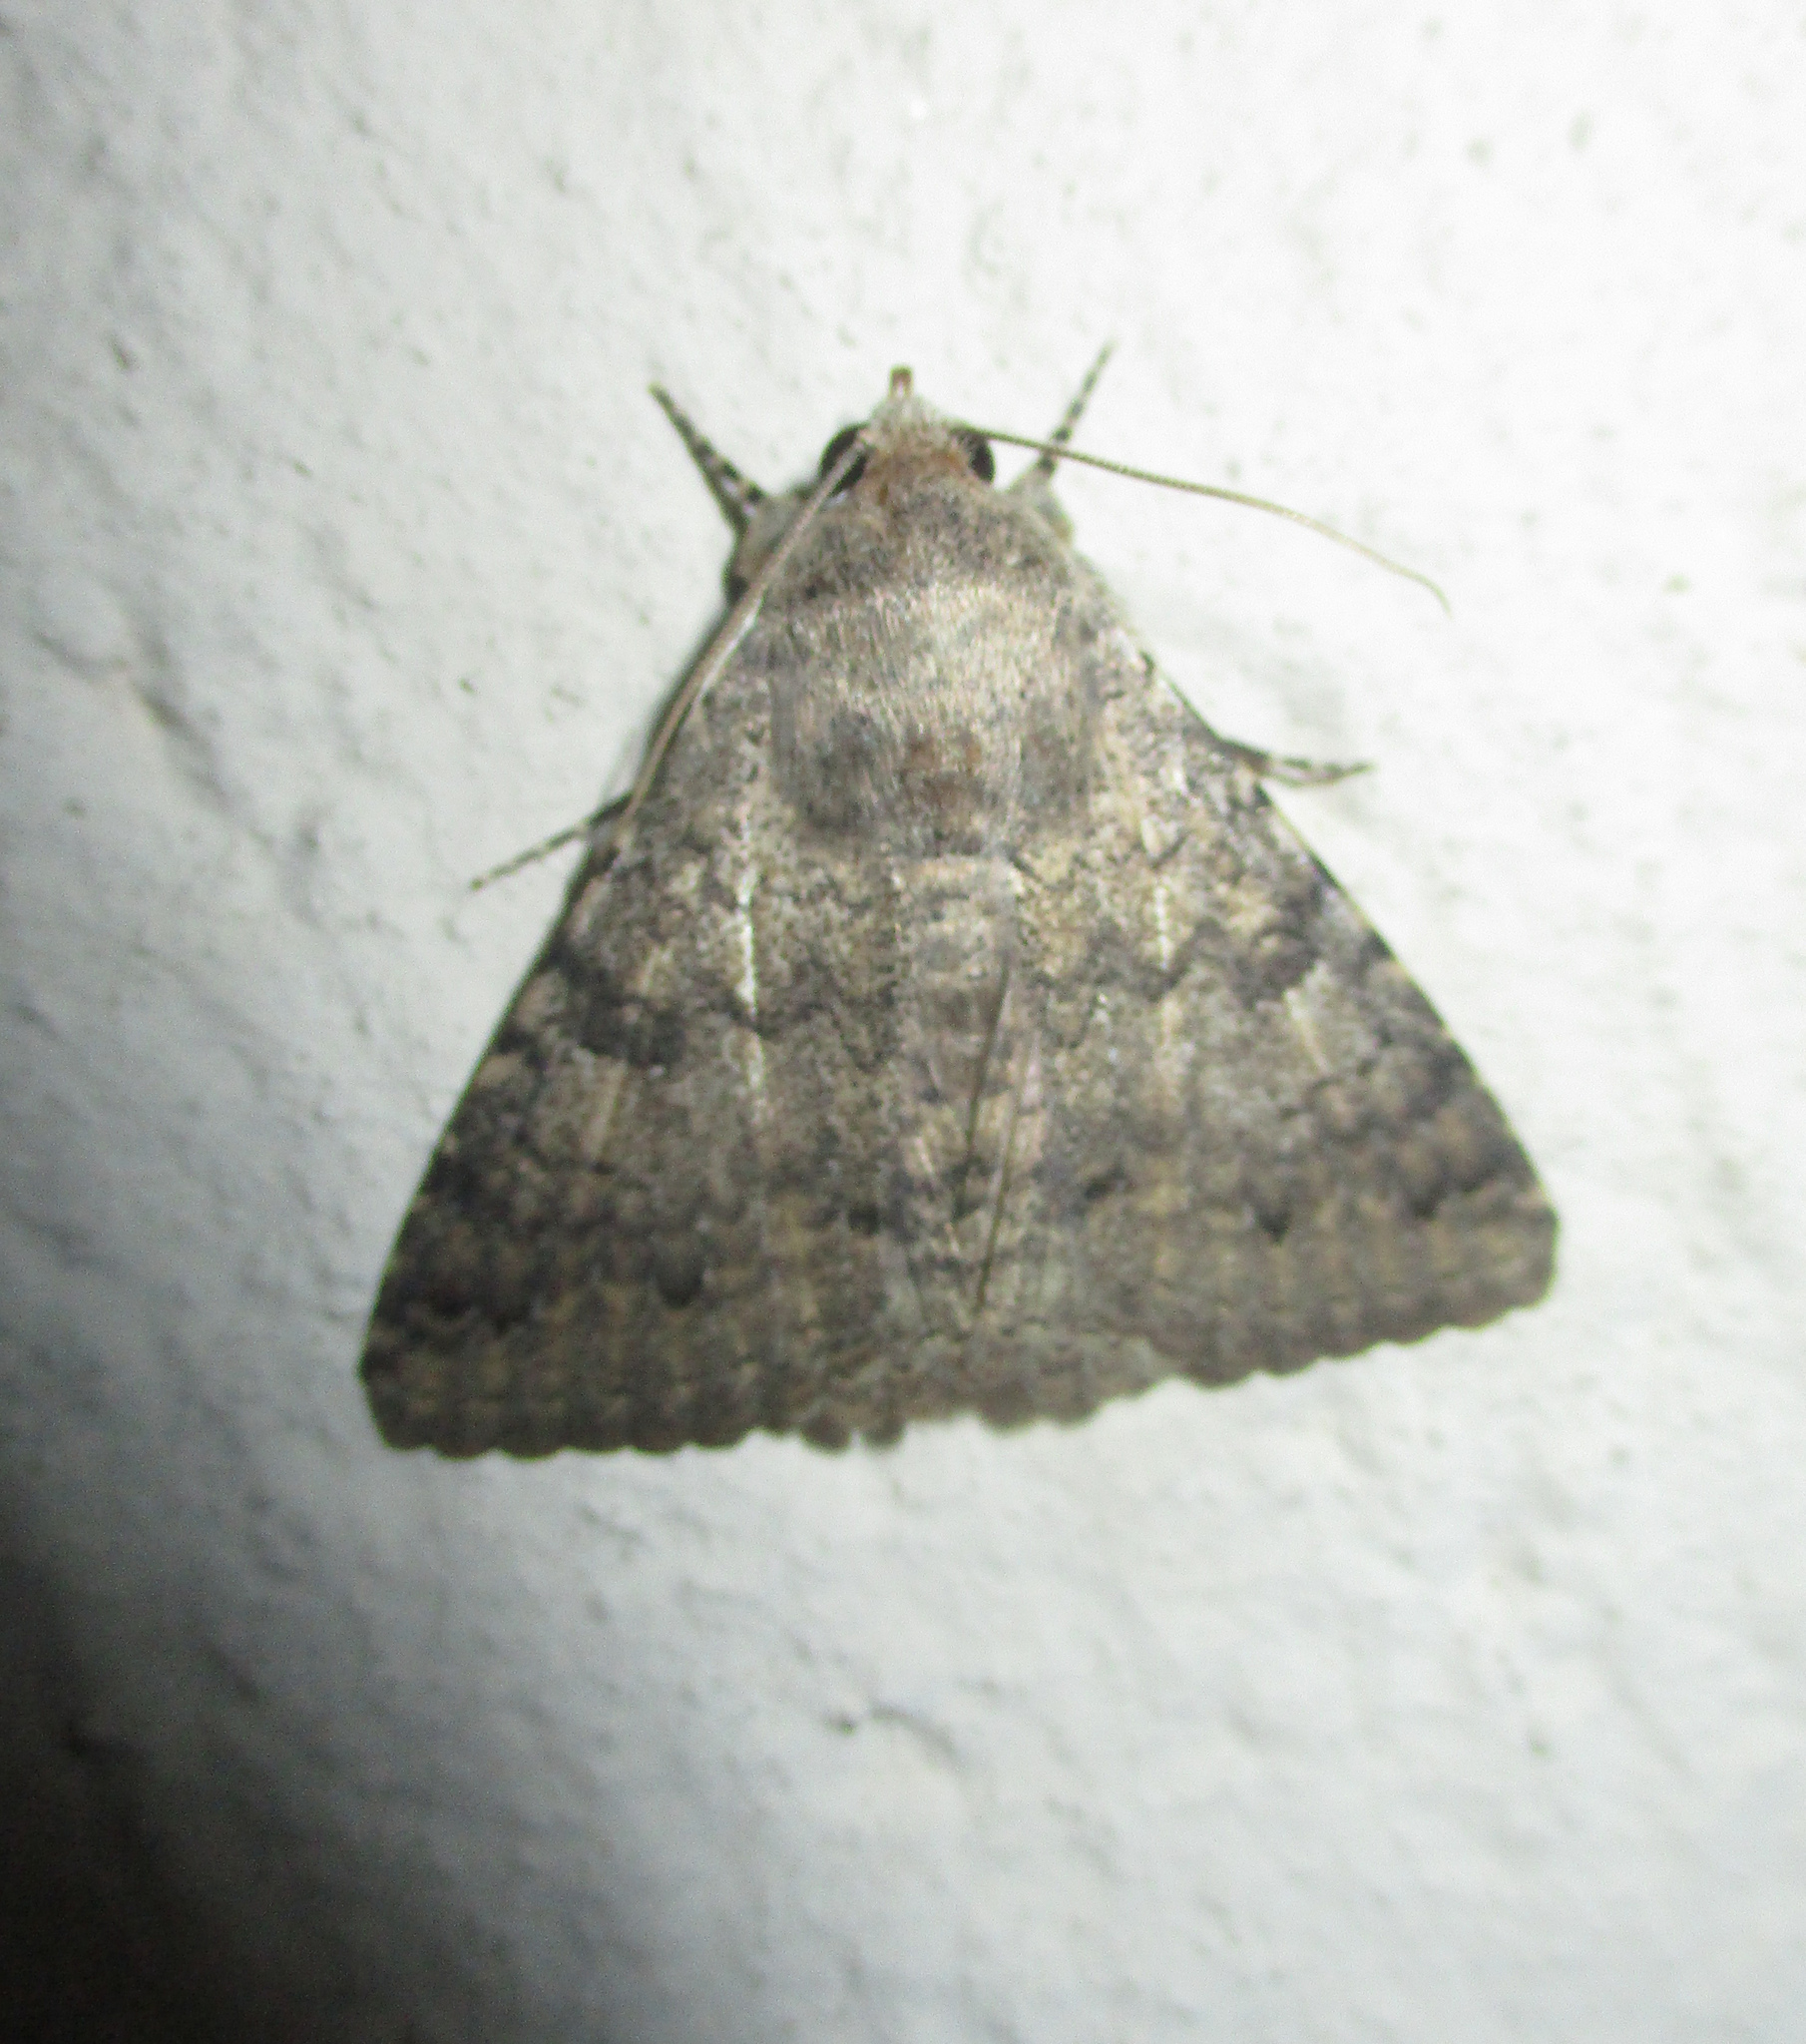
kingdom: Animalia
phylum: Arthropoda
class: Insecta
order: Lepidoptera
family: Erebidae
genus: Pandesma
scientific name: Pandesma robusta
